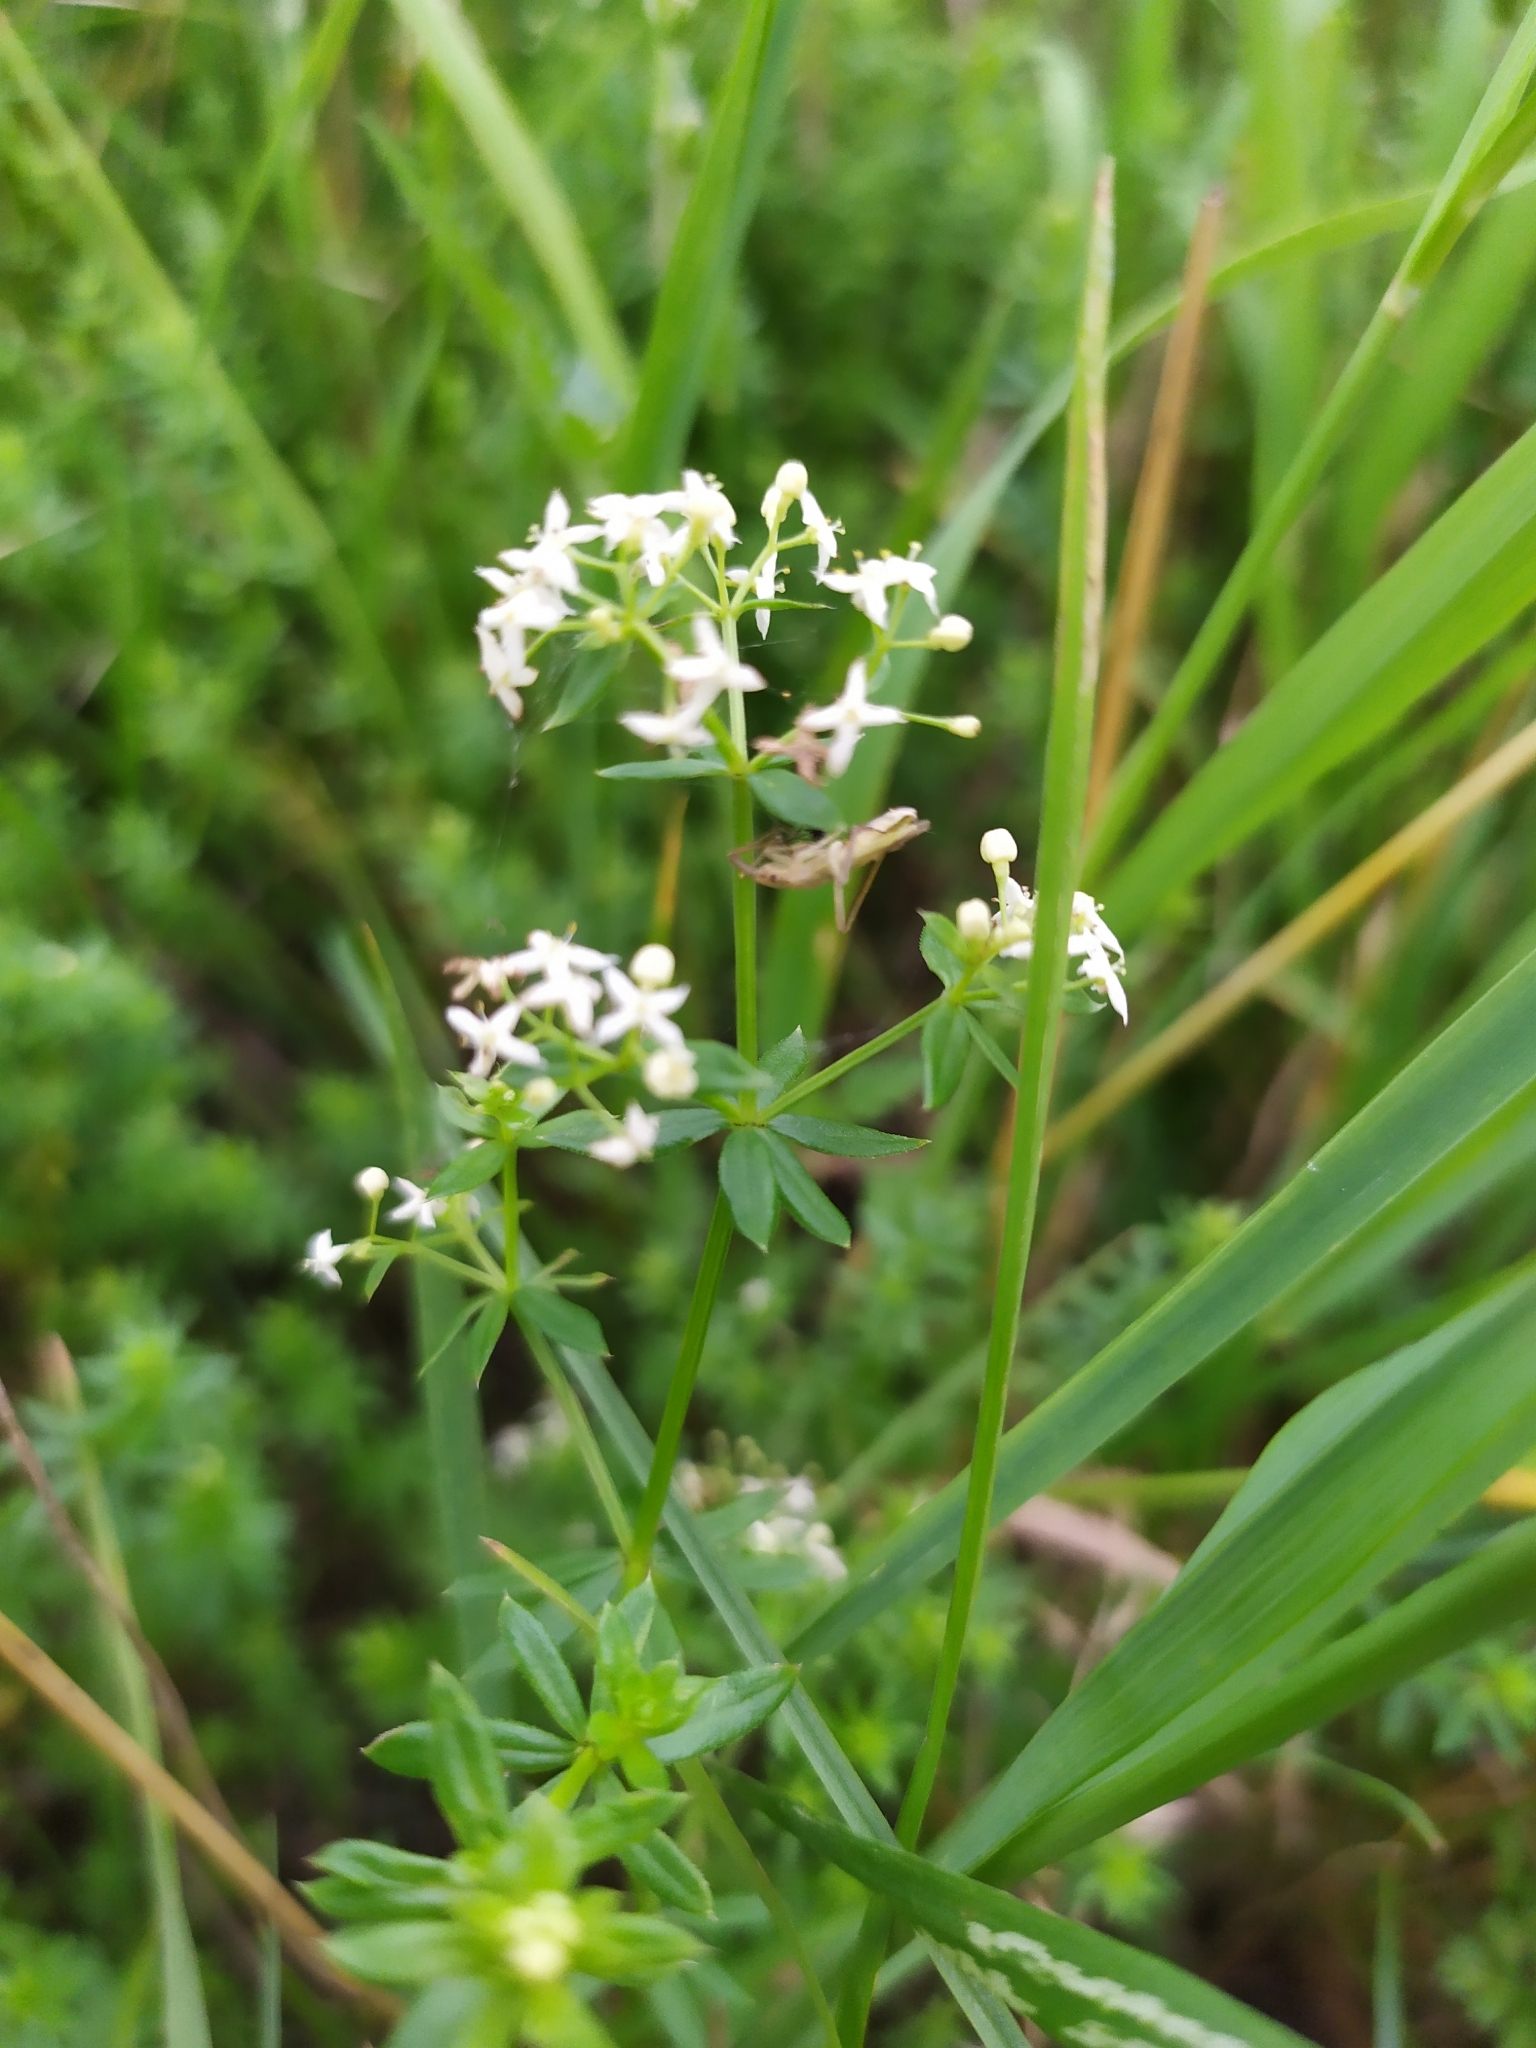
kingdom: Plantae
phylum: Tracheophyta
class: Magnoliopsida
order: Gentianales
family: Rubiaceae
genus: Galium
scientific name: Galium album
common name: White bedstraw
